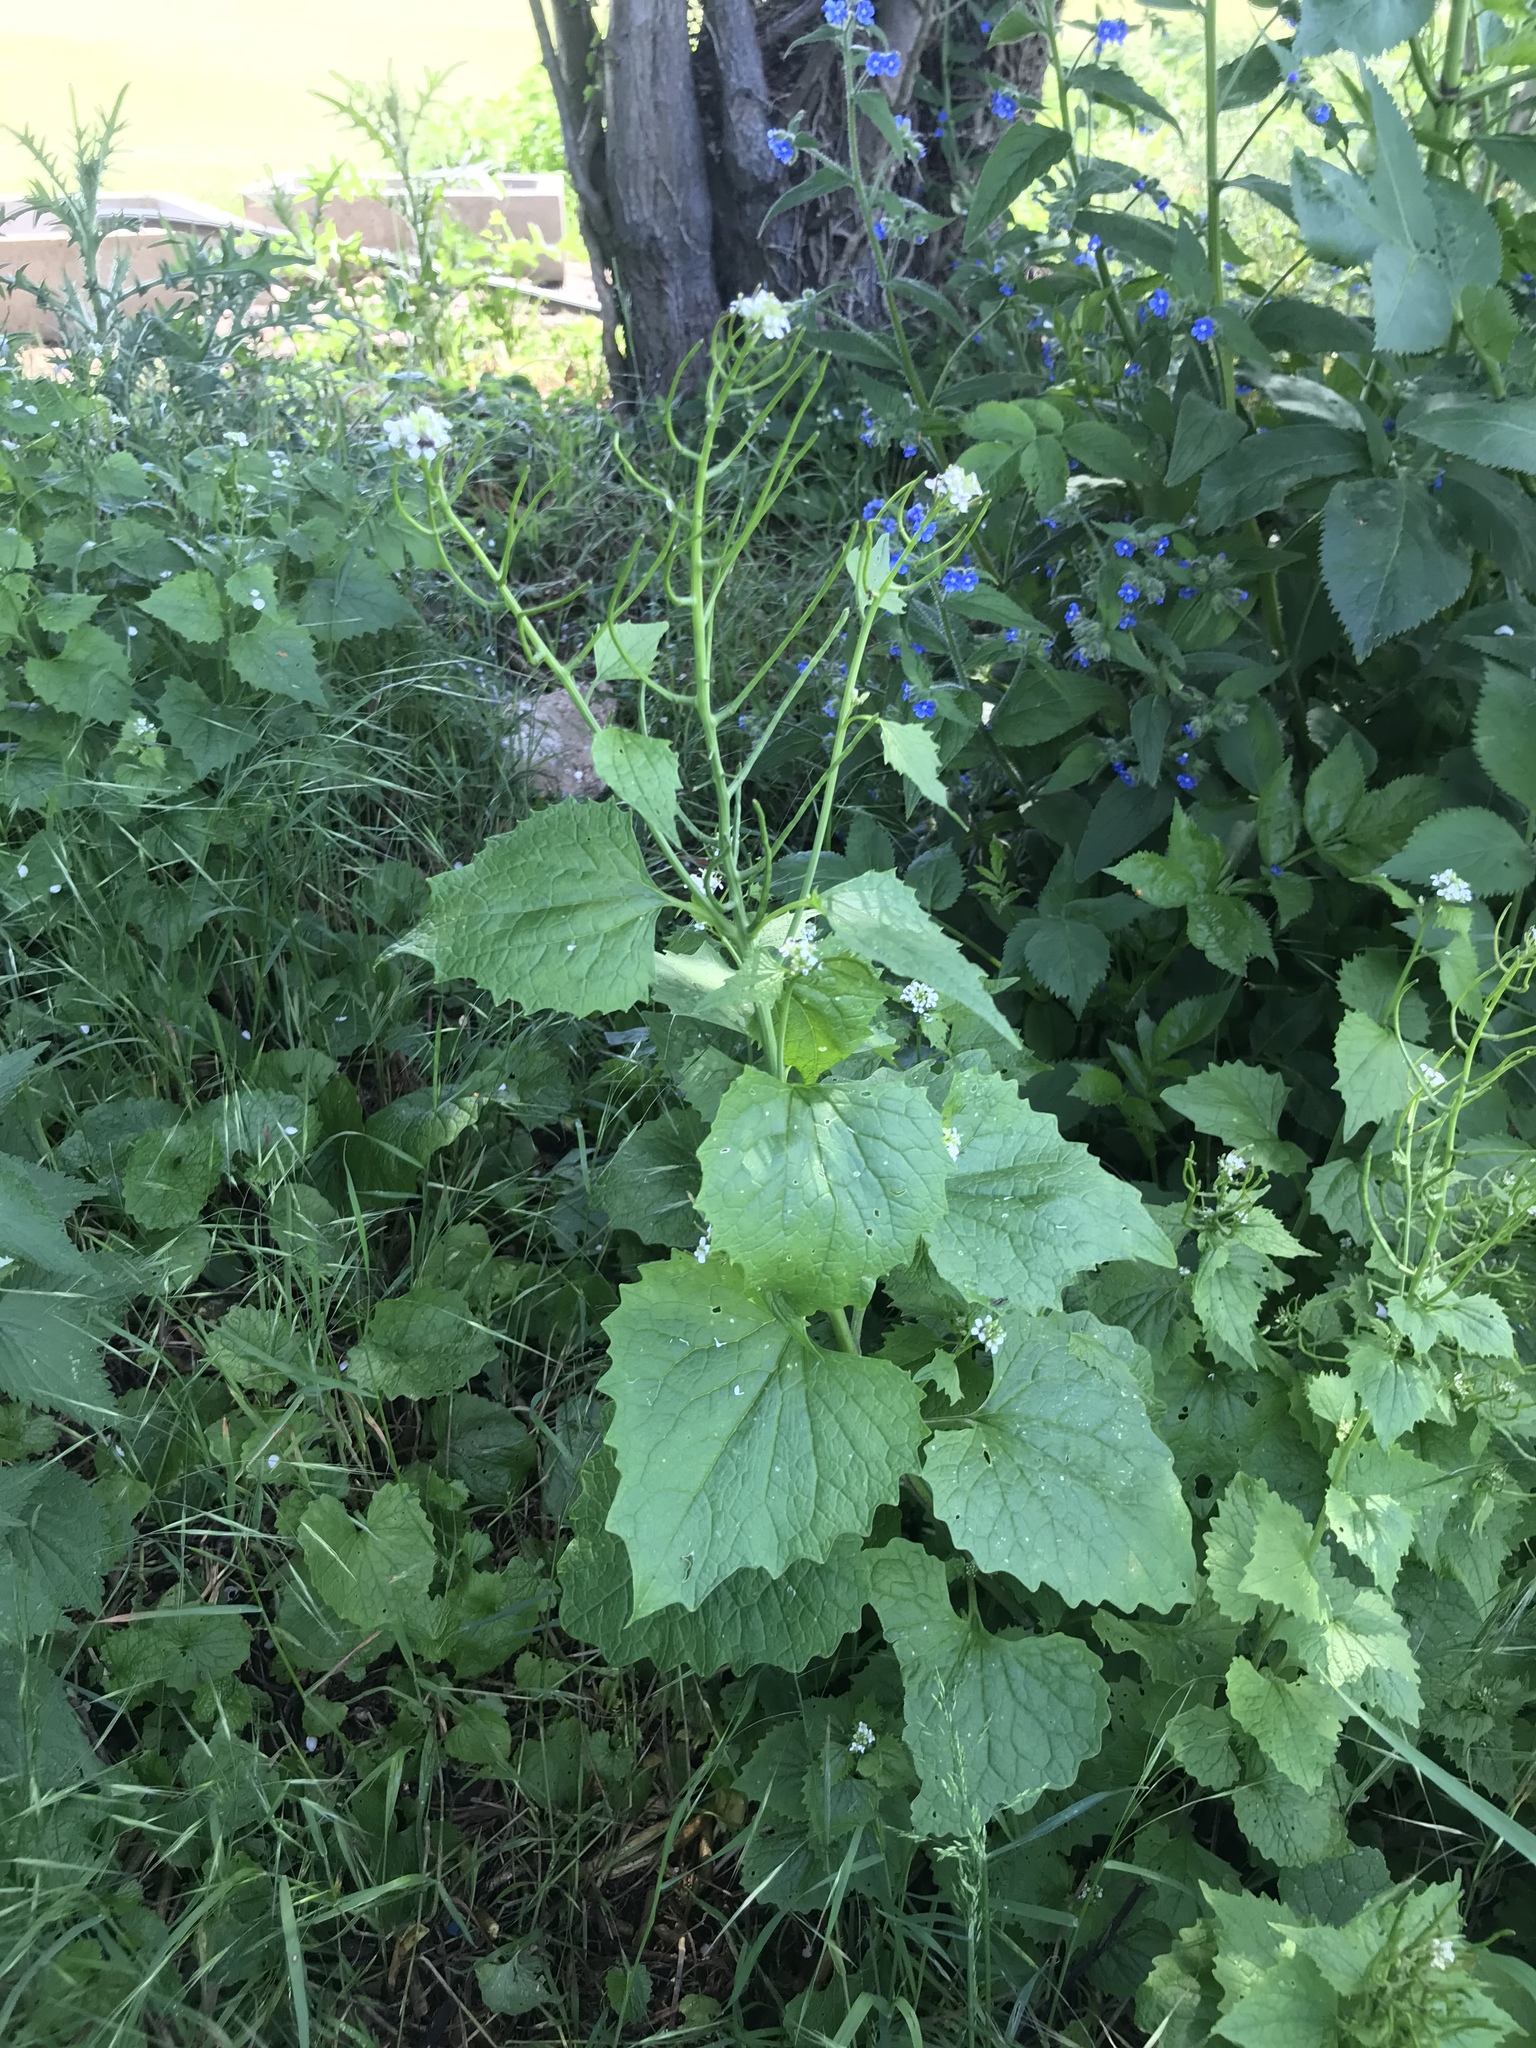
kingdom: Plantae
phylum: Tracheophyta
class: Magnoliopsida
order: Brassicales
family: Brassicaceae
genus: Alliaria
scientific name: Alliaria petiolata
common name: Garlic mustard
